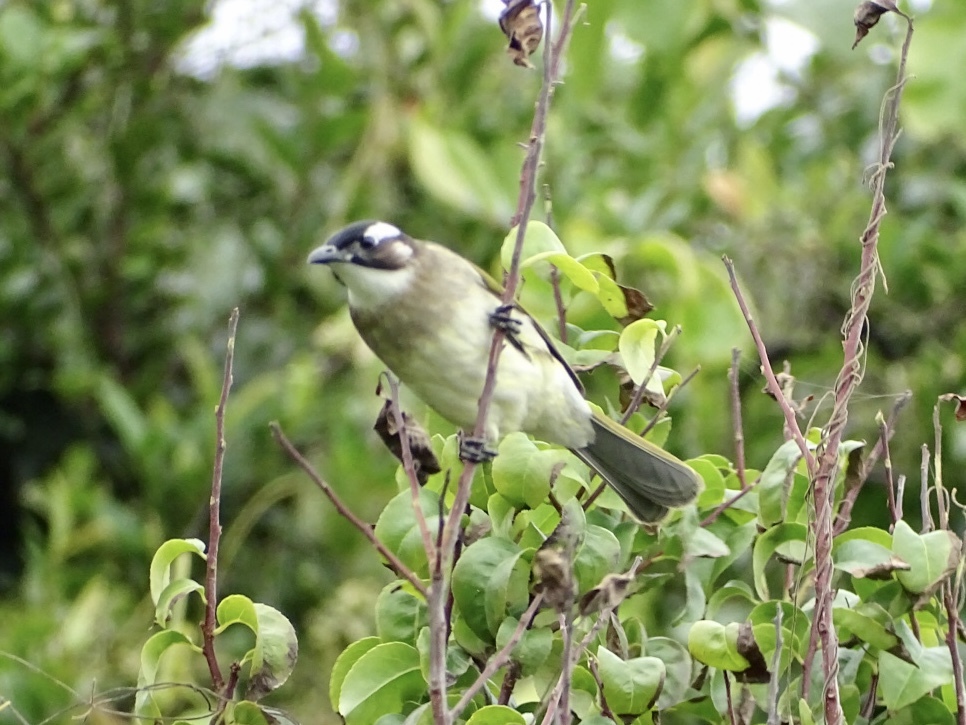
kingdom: Animalia
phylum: Chordata
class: Aves
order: Passeriformes
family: Pycnonotidae
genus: Pycnonotus
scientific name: Pycnonotus sinensis
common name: Light-vented bulbul
